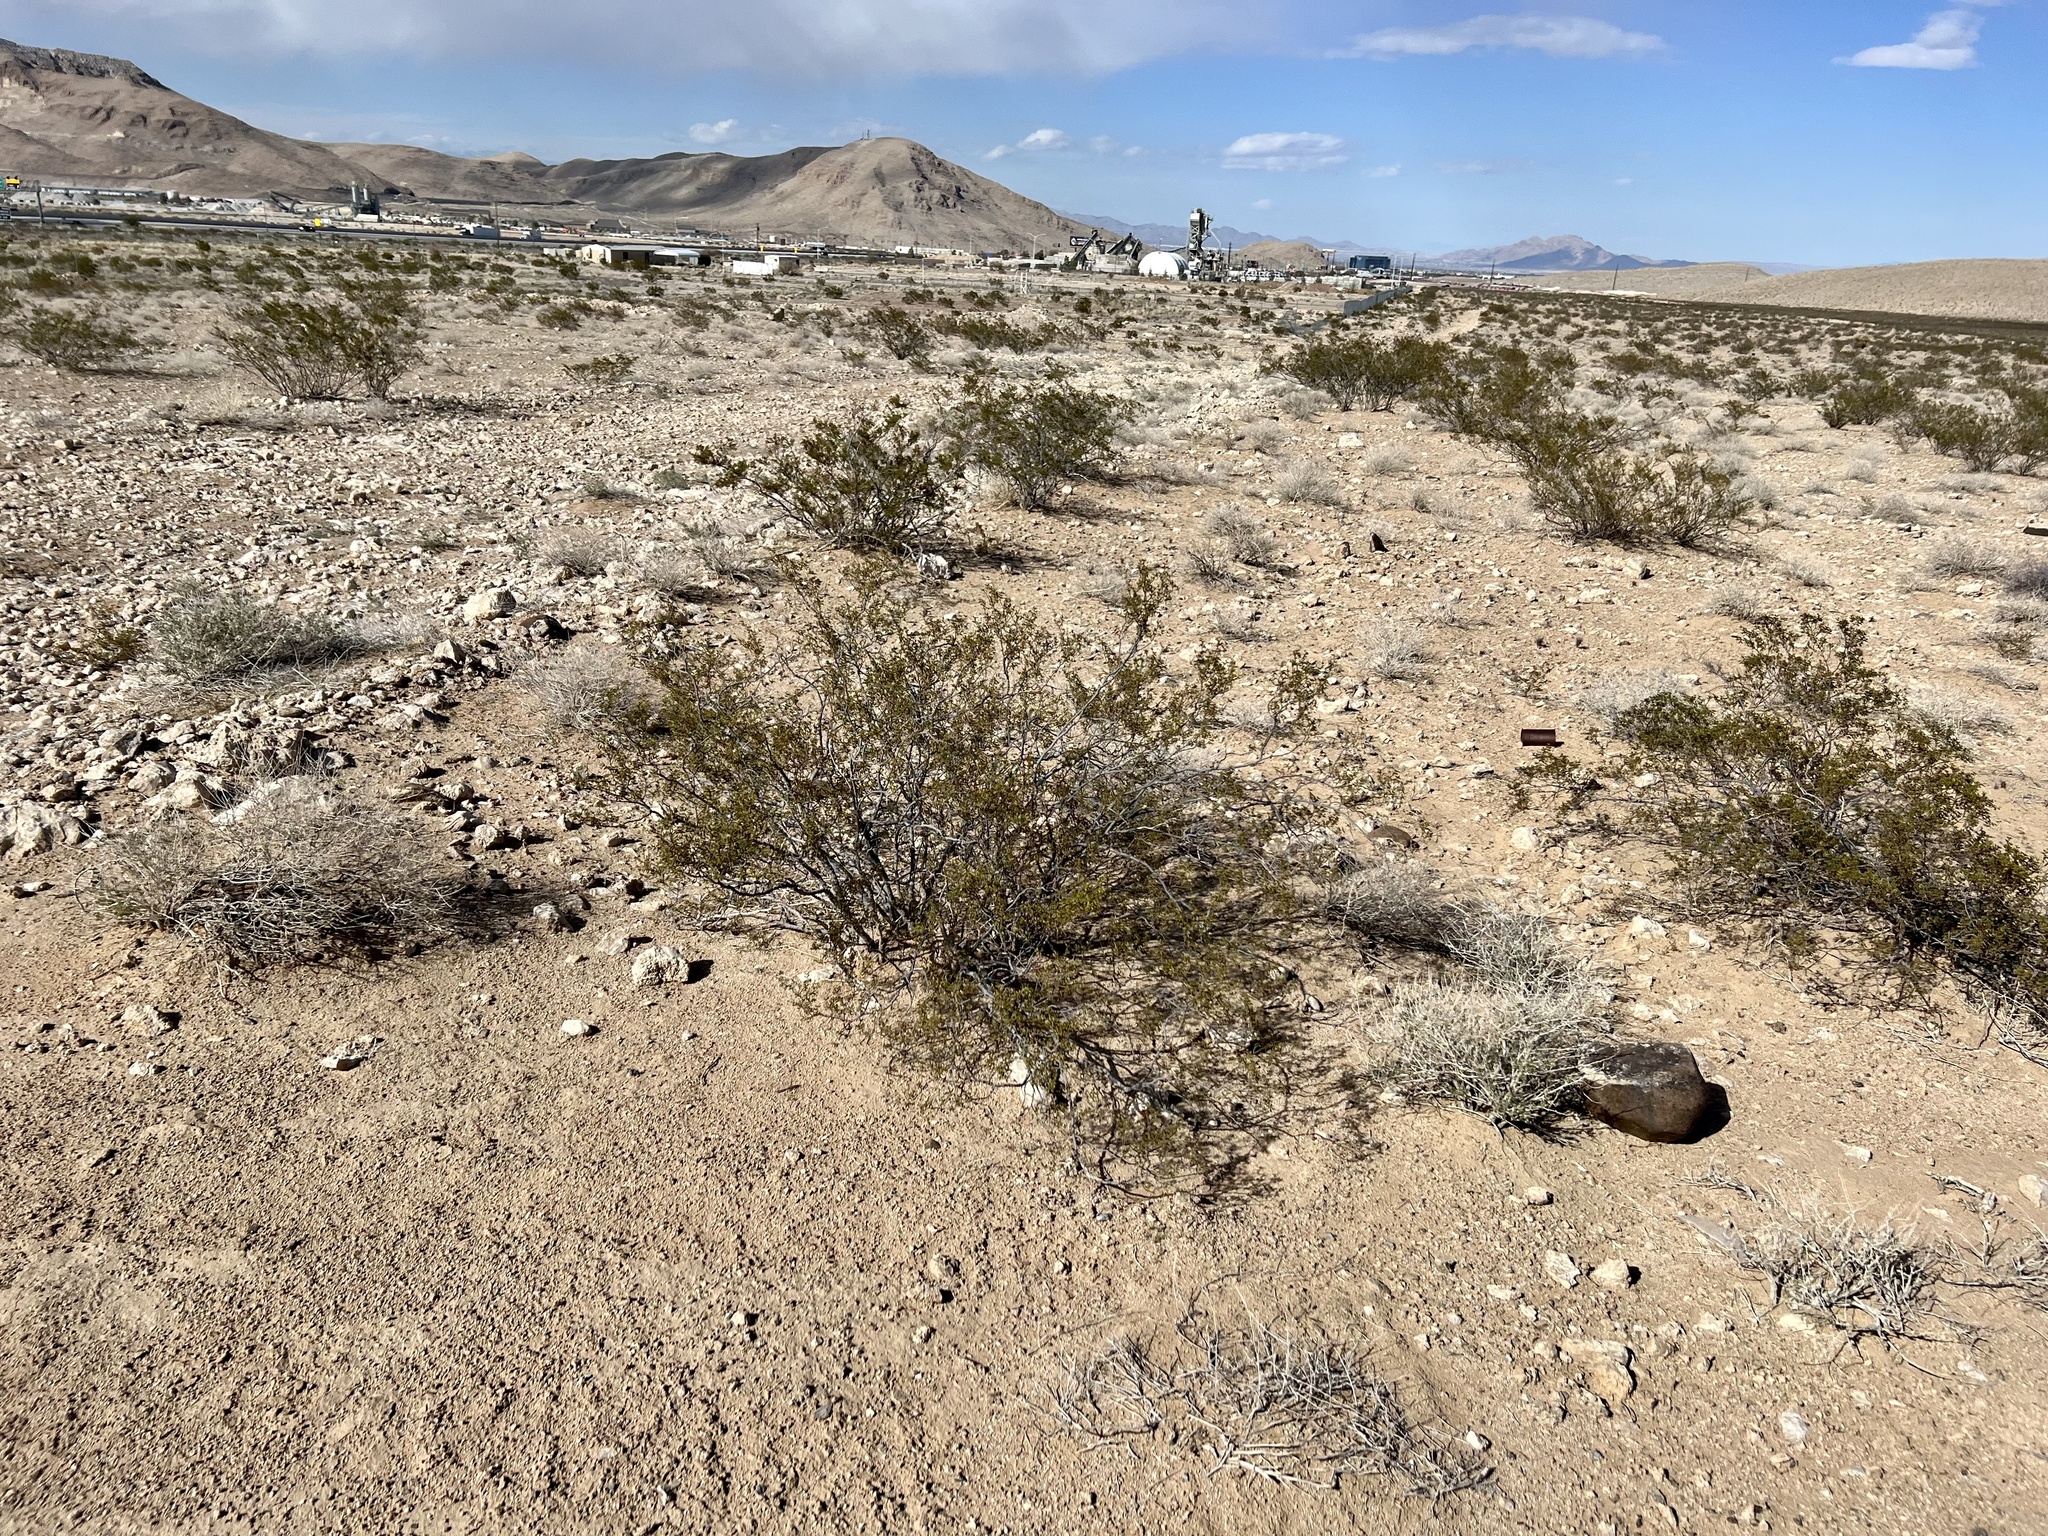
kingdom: Plantae
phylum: Tracheophyta
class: Magnoliopsida
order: Zygophyllales
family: Zygophyllaceae
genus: Larrea
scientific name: Larrea tridentata
